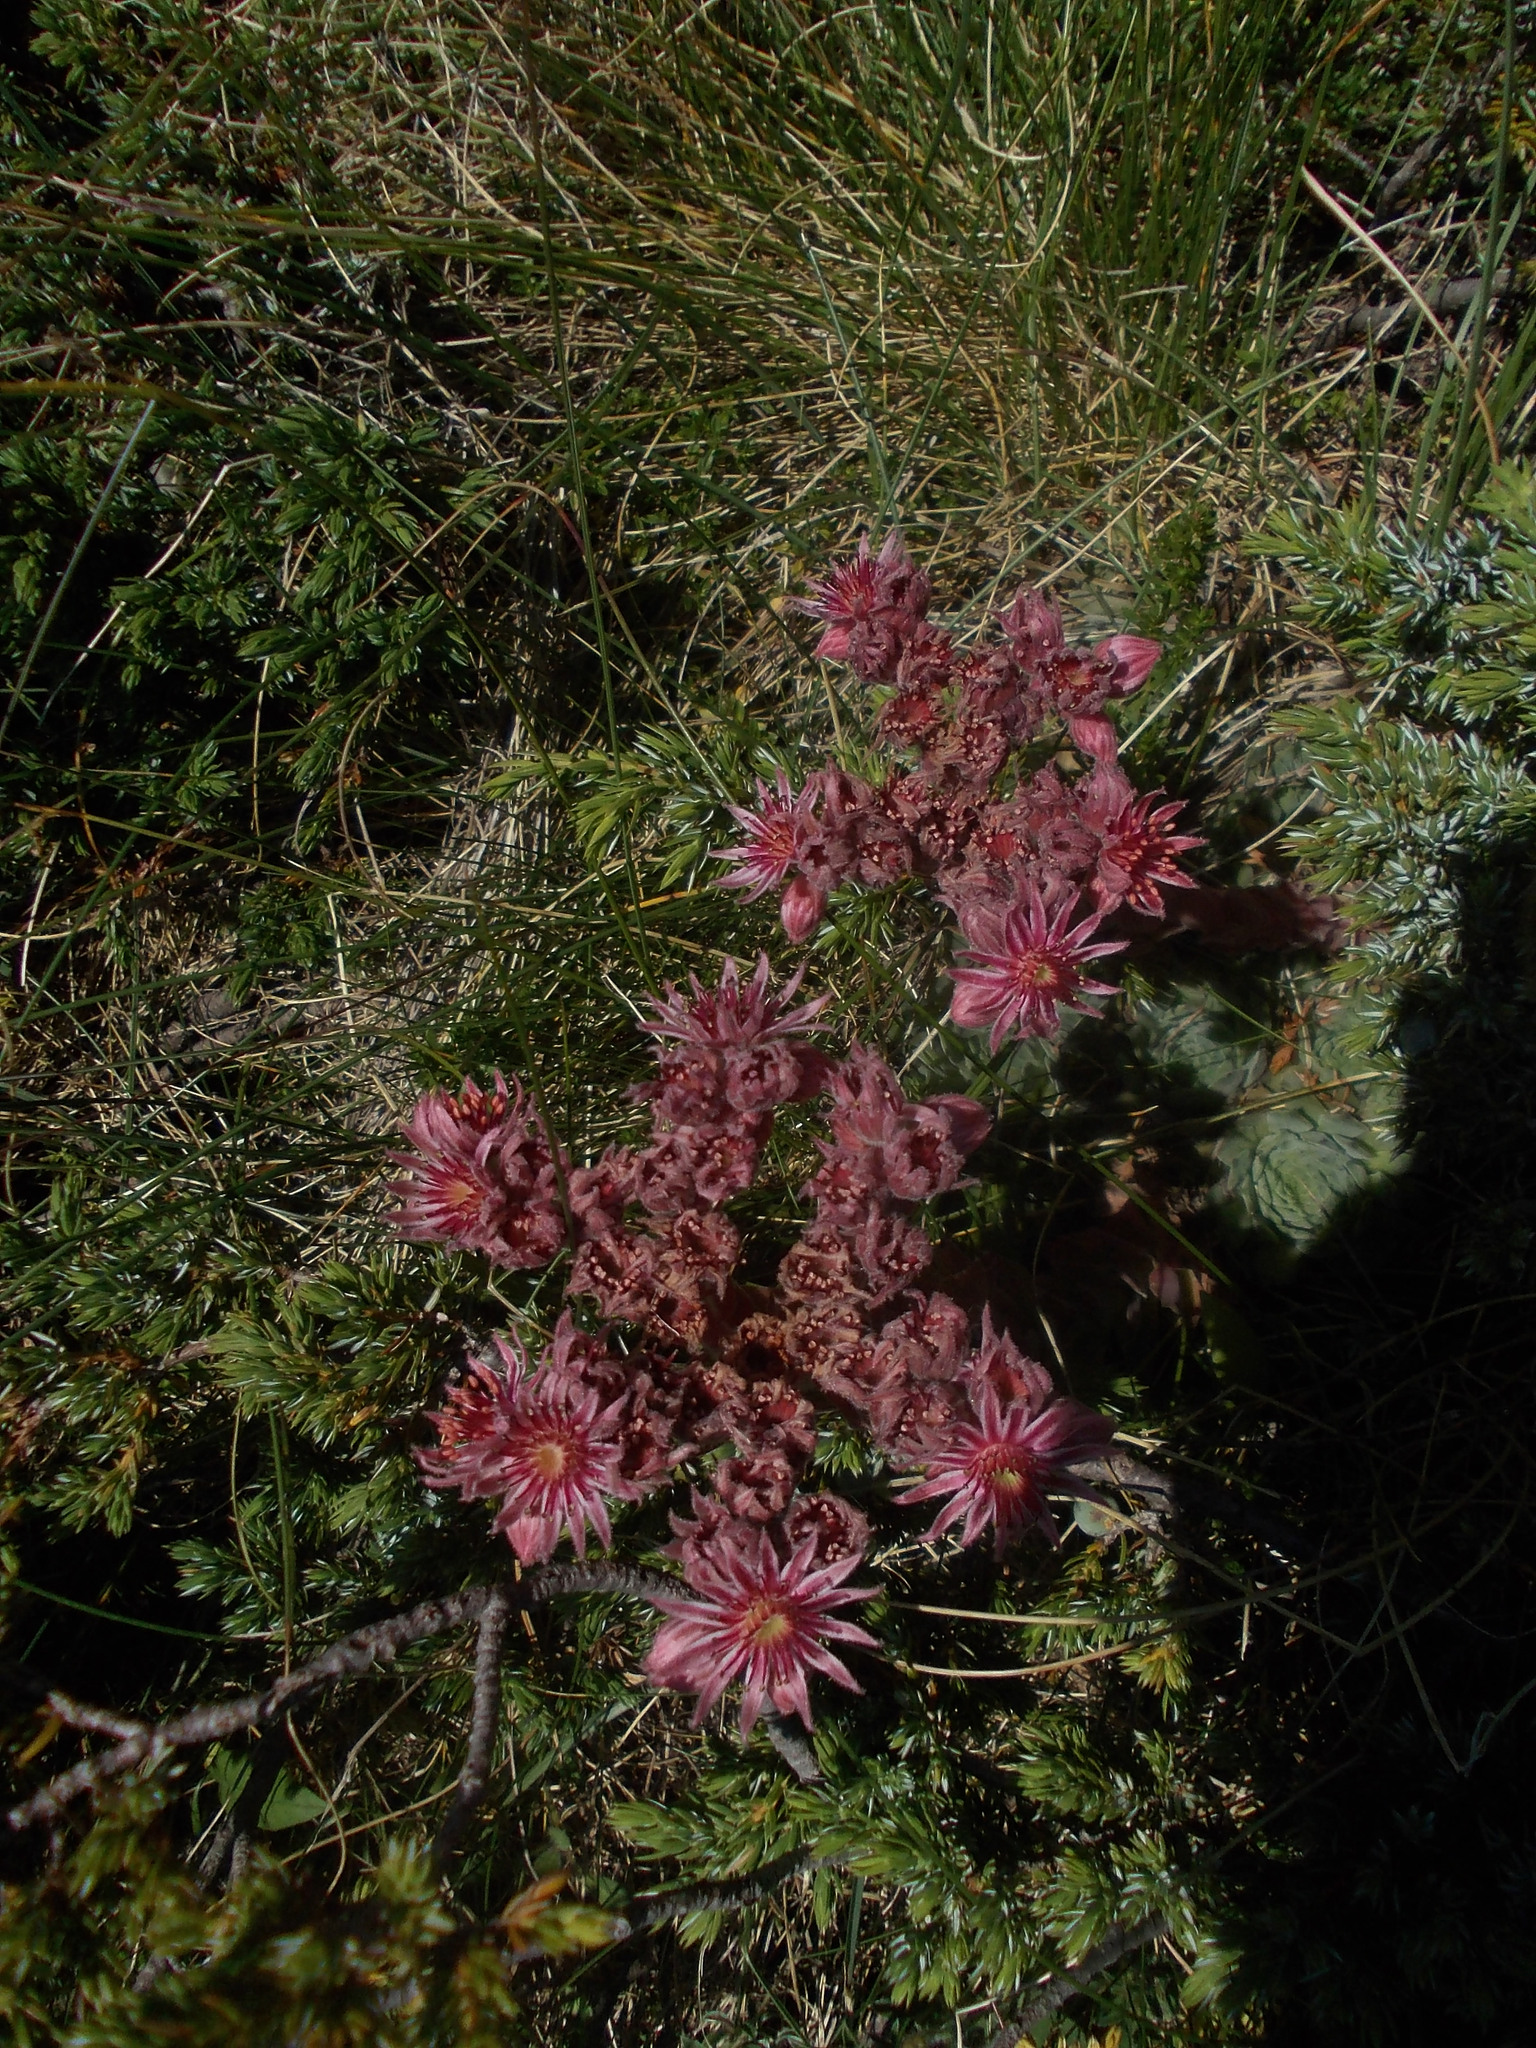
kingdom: Plantae
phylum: Tracheophyta
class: Magnoliopsida
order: Saxifragales
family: Crassulaceae
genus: Sempervivum
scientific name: Sempervivum marmoreum
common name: Houseleek
